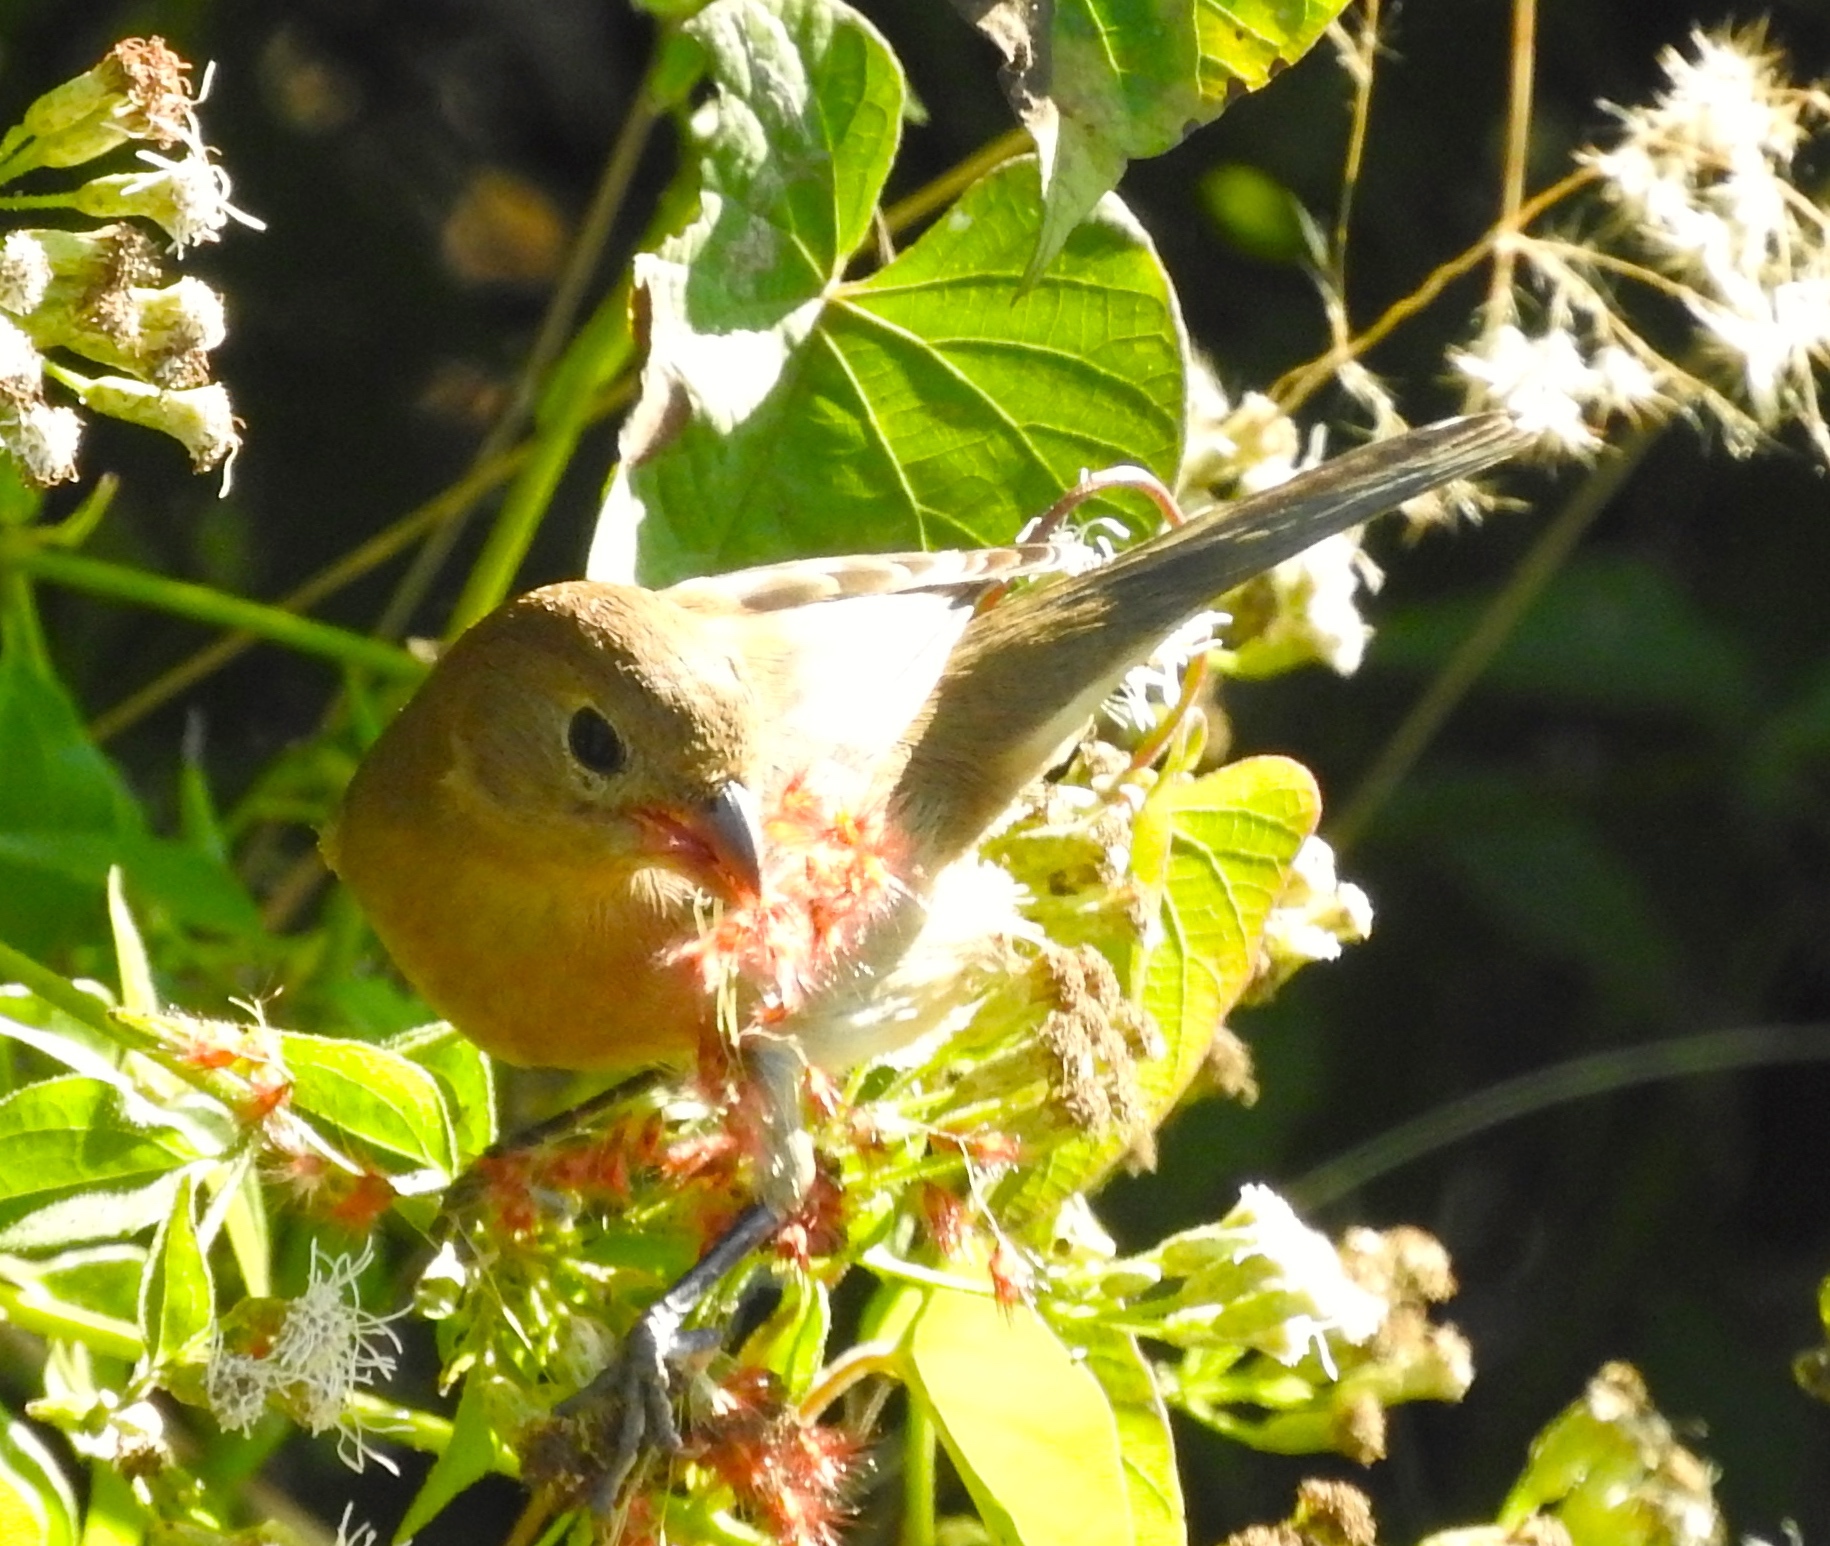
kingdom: Animalia
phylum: Chordata
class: Aves
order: Passeriformes
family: Cardinalidae
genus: Passerina
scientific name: Passerina versicolor
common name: Varied bunting
